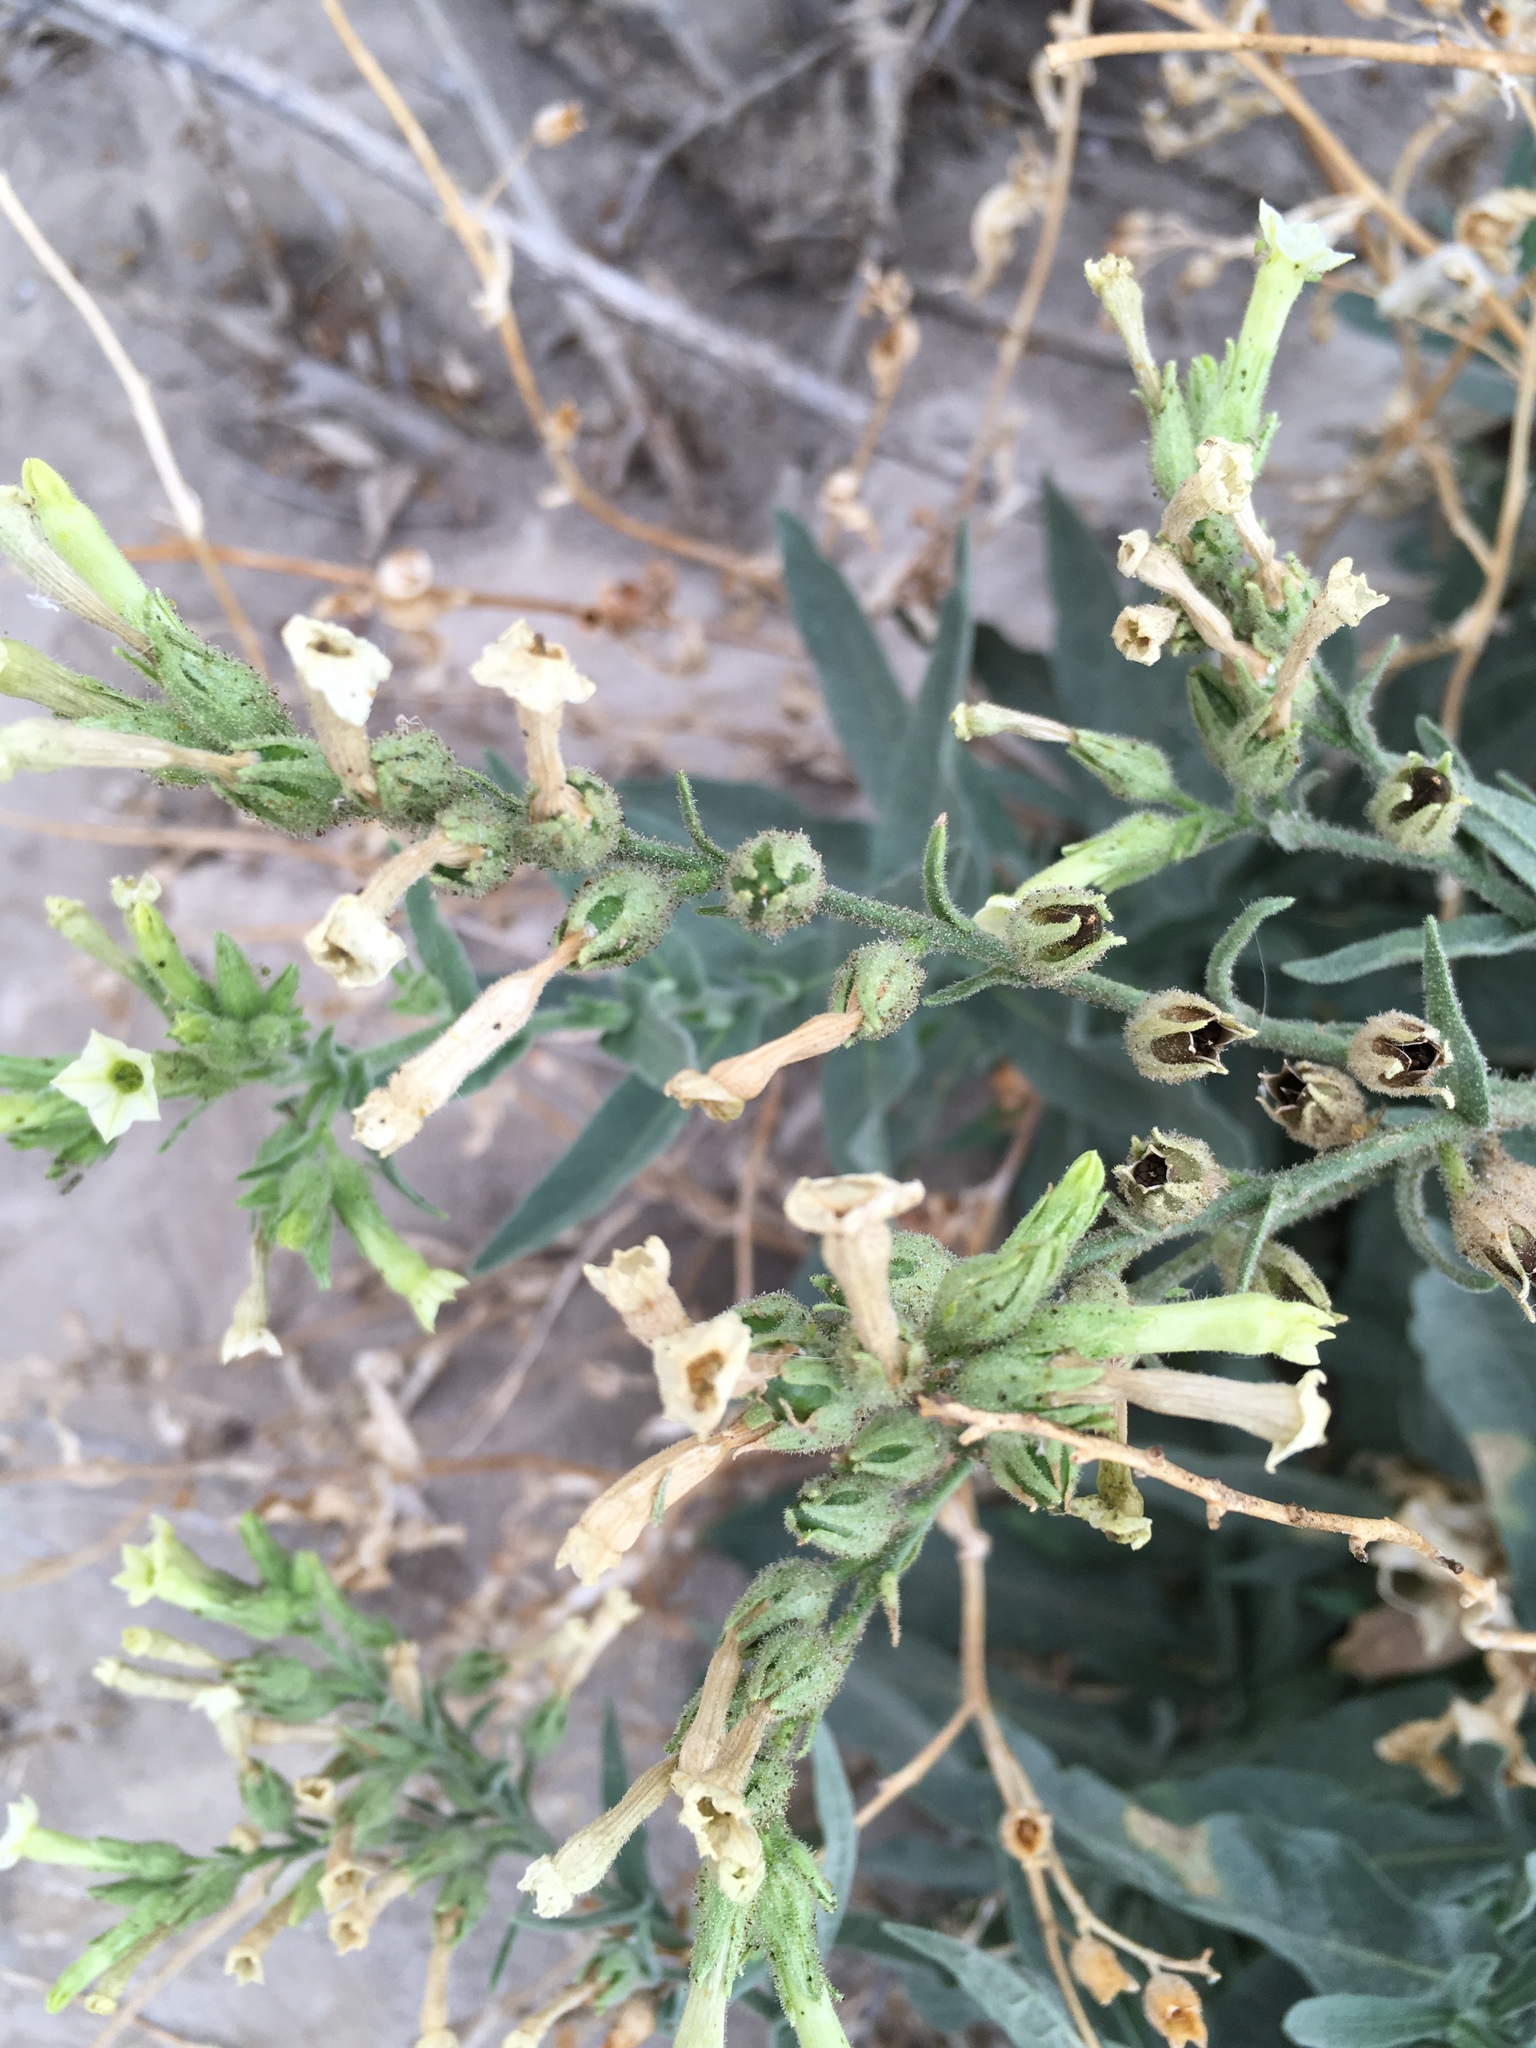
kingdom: Plantae
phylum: Tracheophyta
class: Magnoliopsida
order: Solanales
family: Solanaceae
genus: Nicotiana
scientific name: Nicotiana obtusifolia
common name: Desert tobacco
